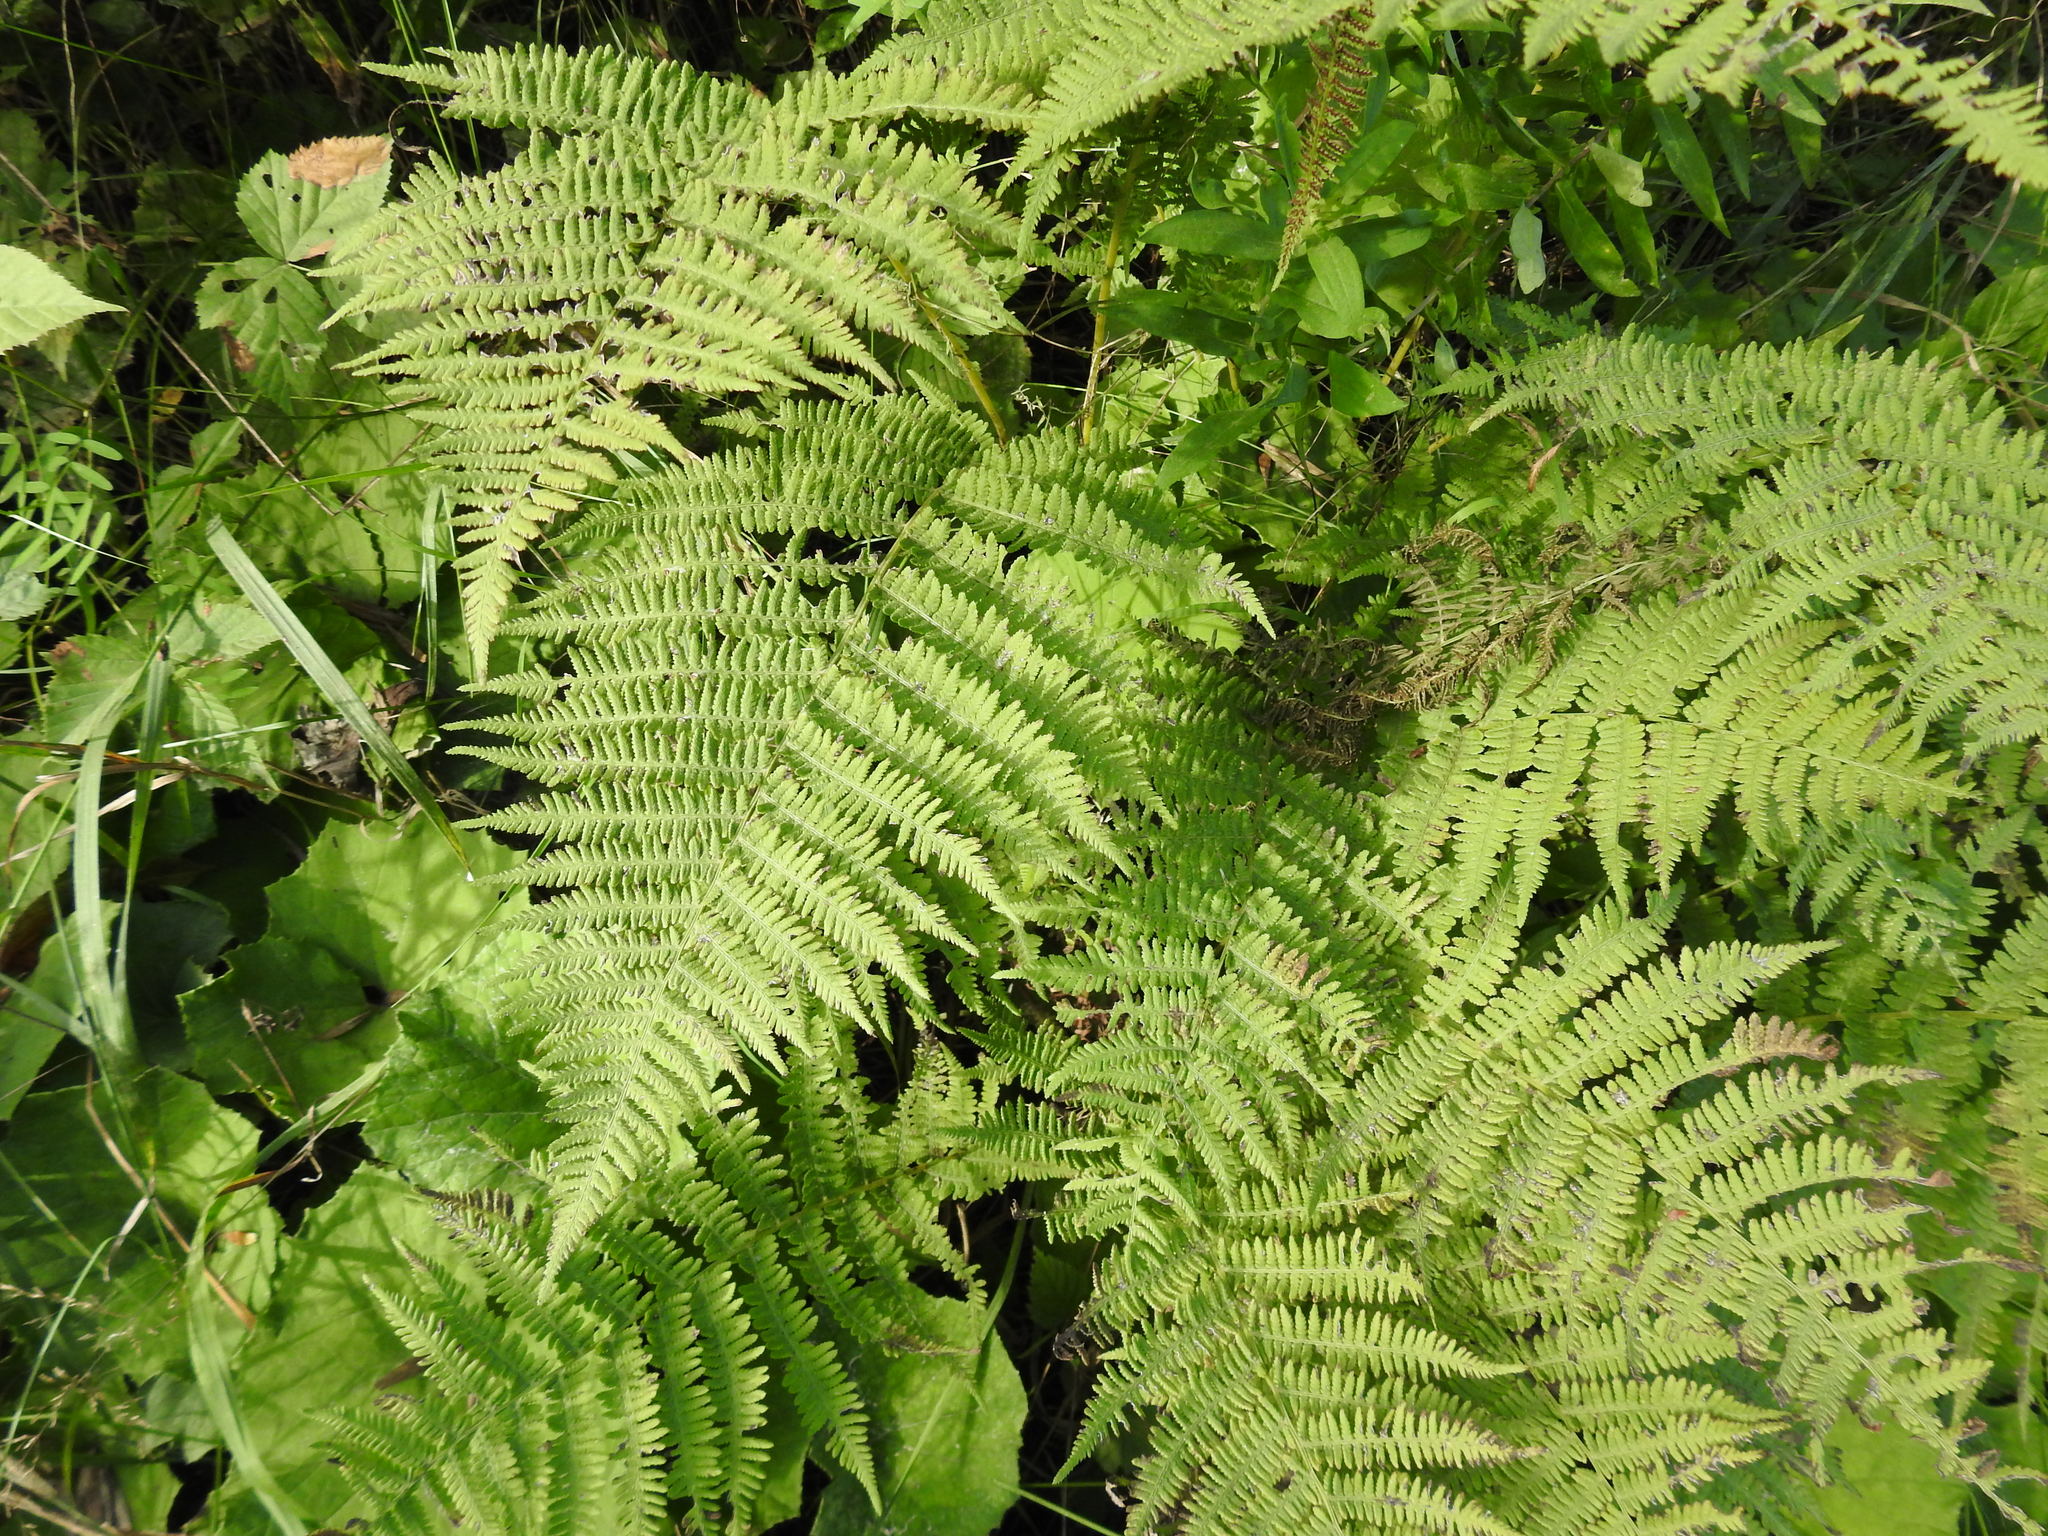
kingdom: Plantae
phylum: Tracheophyta
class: Polypodiopsida
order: Polypodiales
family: Athyriaceae
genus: Athyrium
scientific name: Athyrium angustum
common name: Northern lady fern
